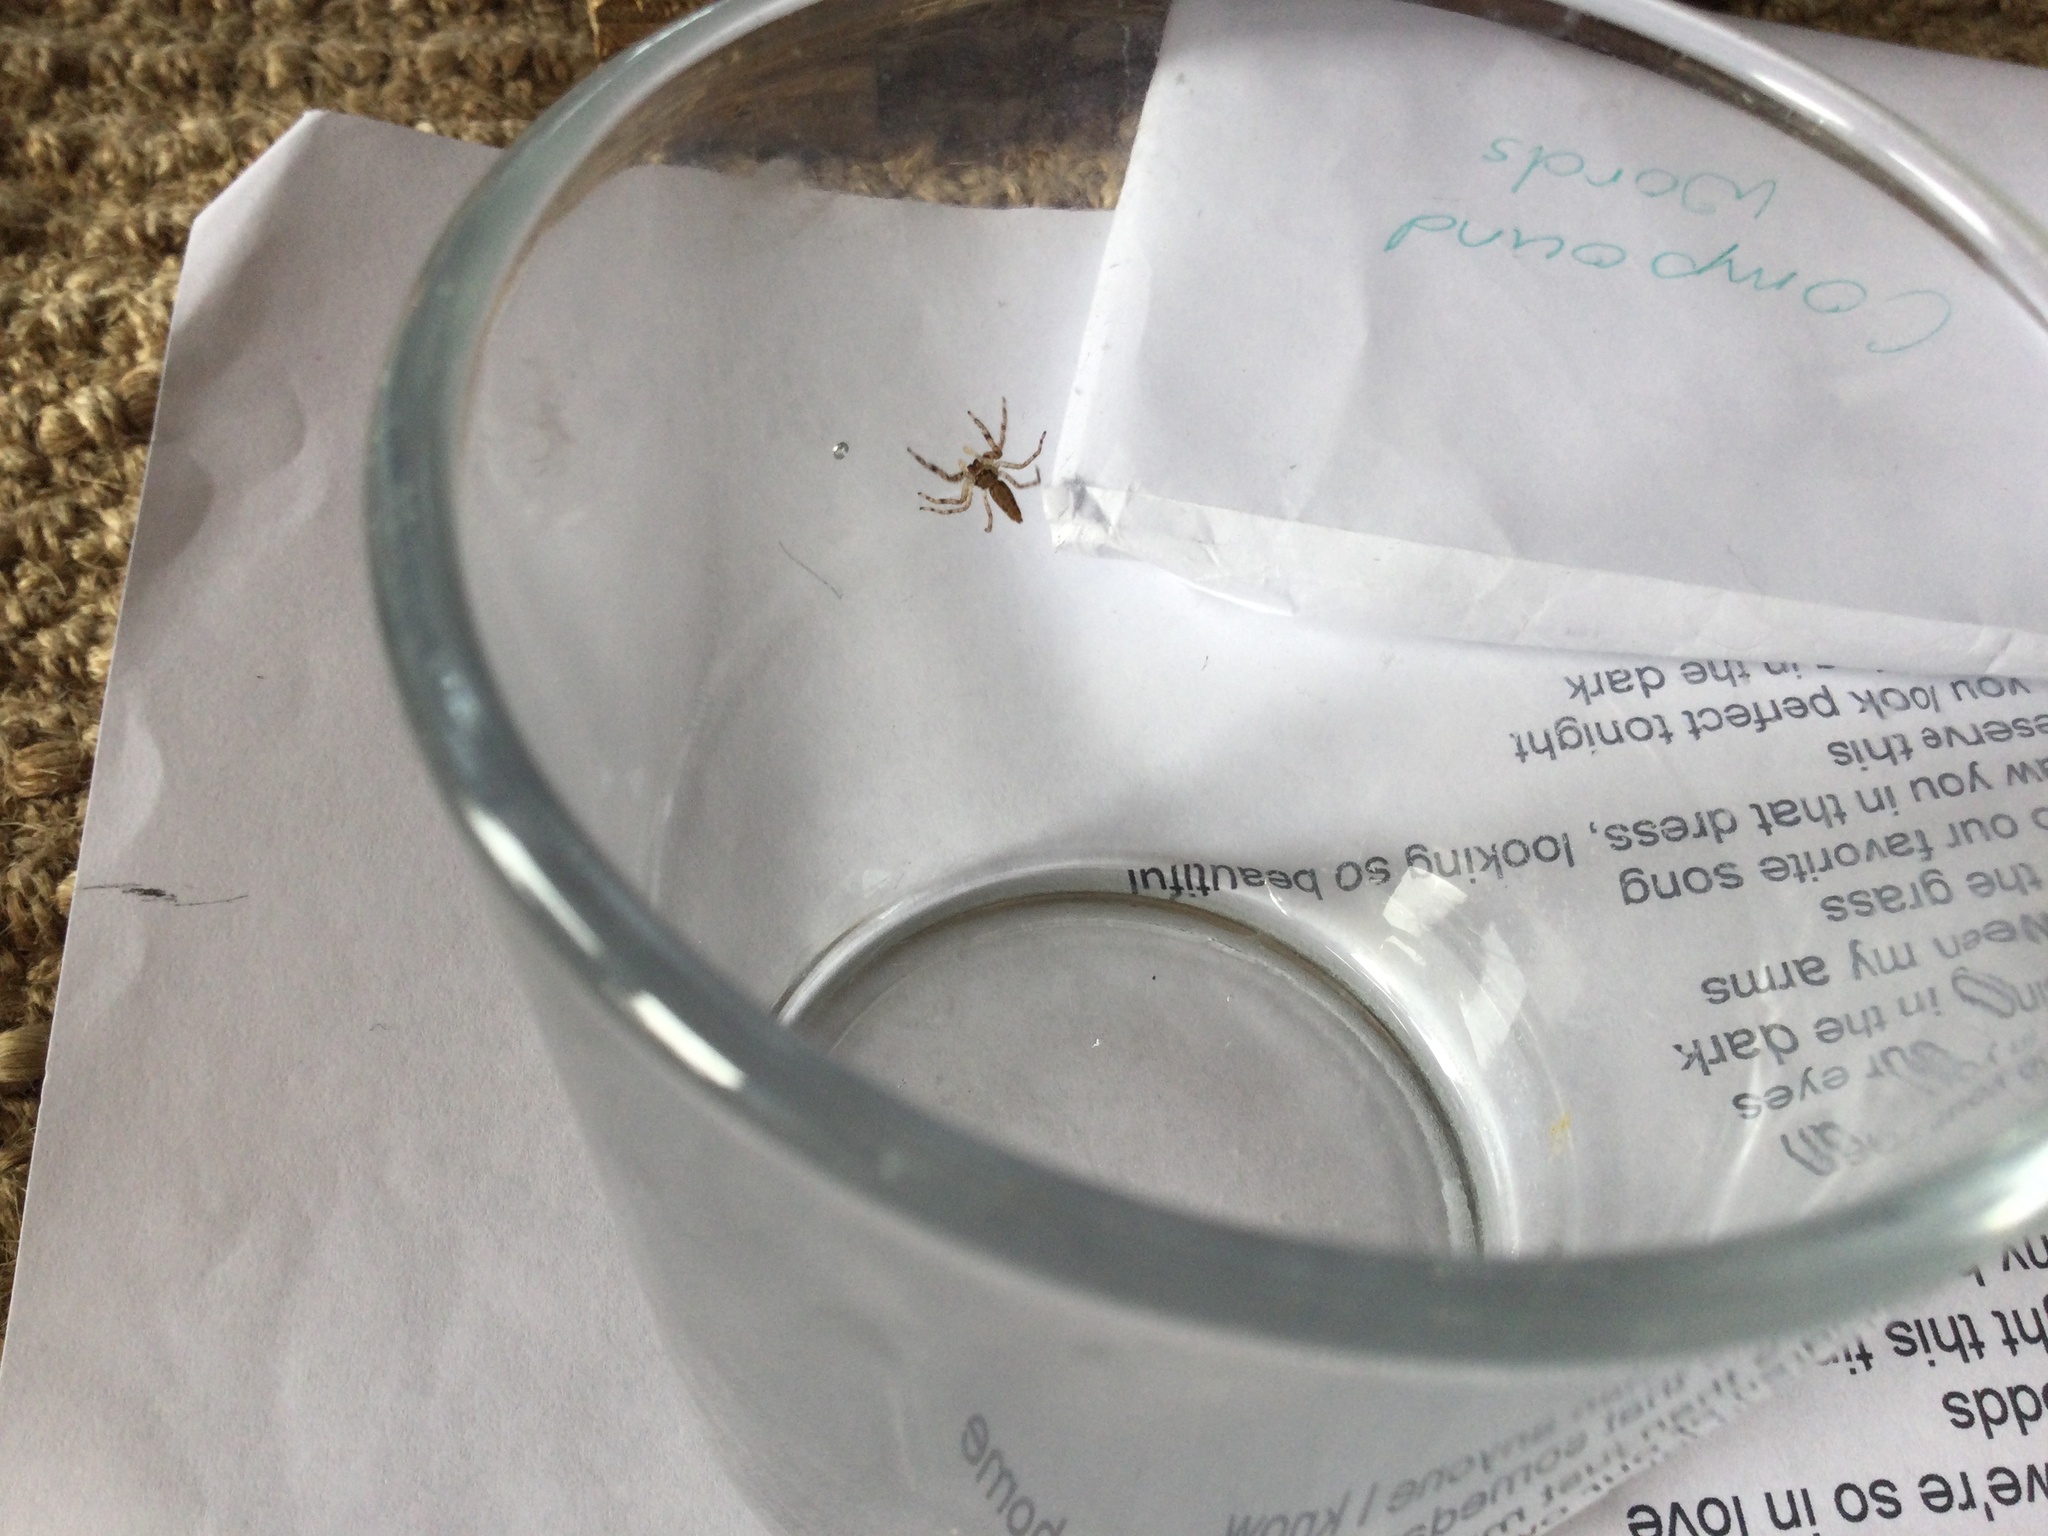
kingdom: Animalia
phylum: Arthropoda
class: Arachnida
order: Araneae
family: Salticidae
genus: Helpis
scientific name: Helpis minitabunda
